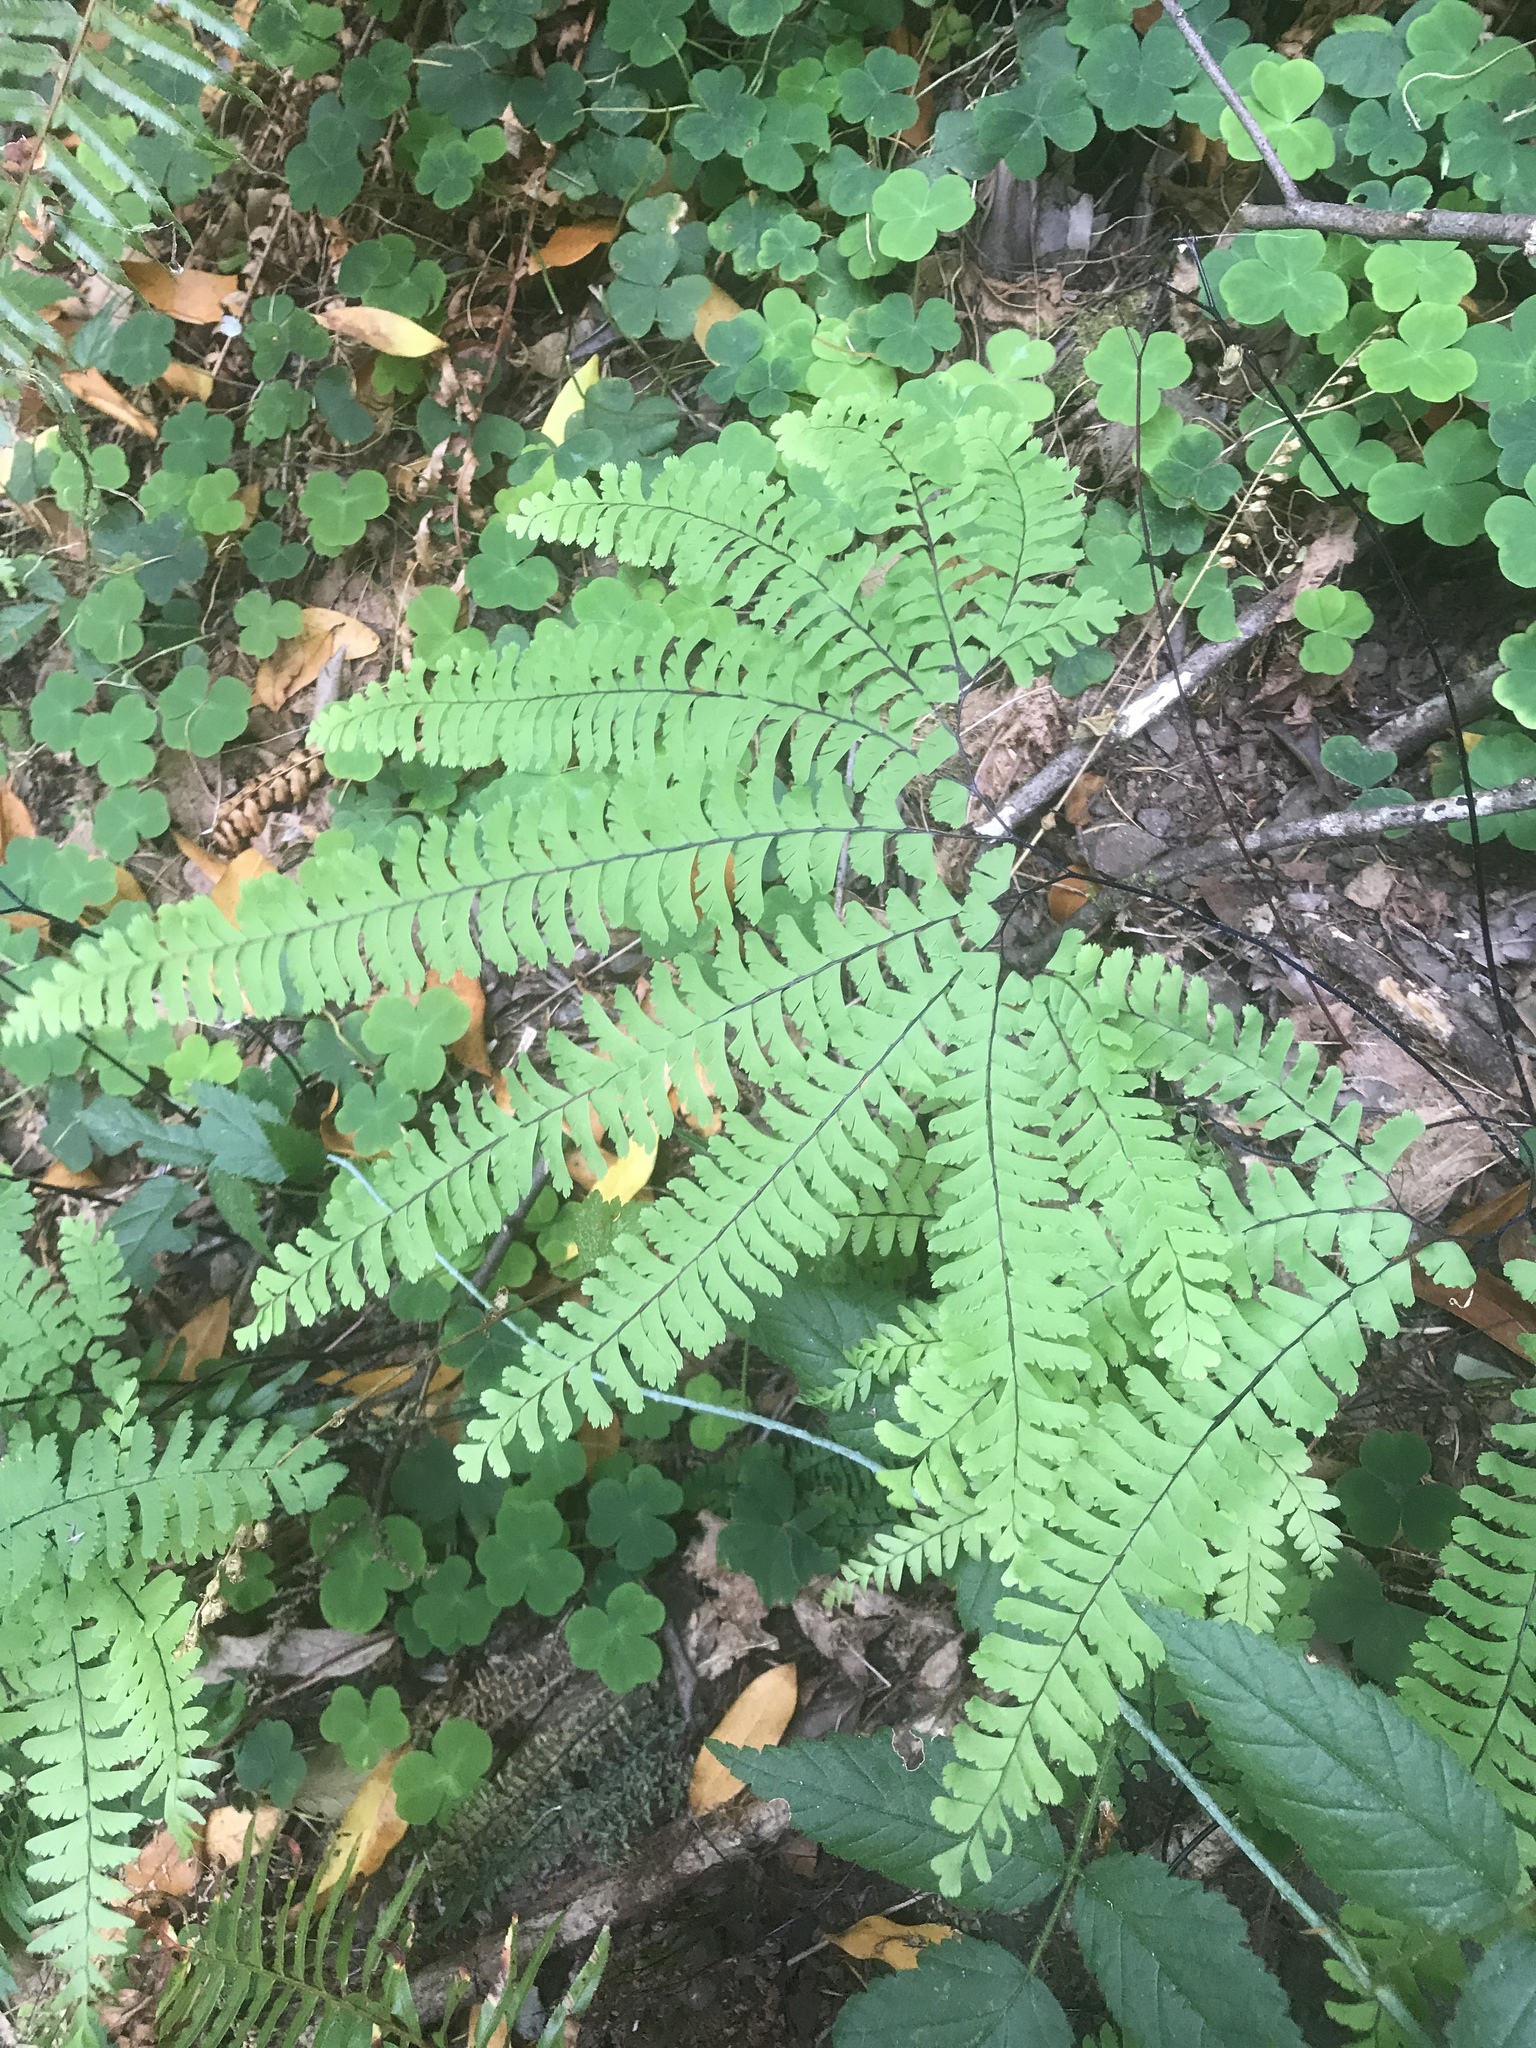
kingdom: Plantae
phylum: Tracheophyta
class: Polypodiopsida
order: Polypodiales
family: Pteridaceae
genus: Adiantum
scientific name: Adiantum aleuticum
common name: Aleutian maidenhair fern
